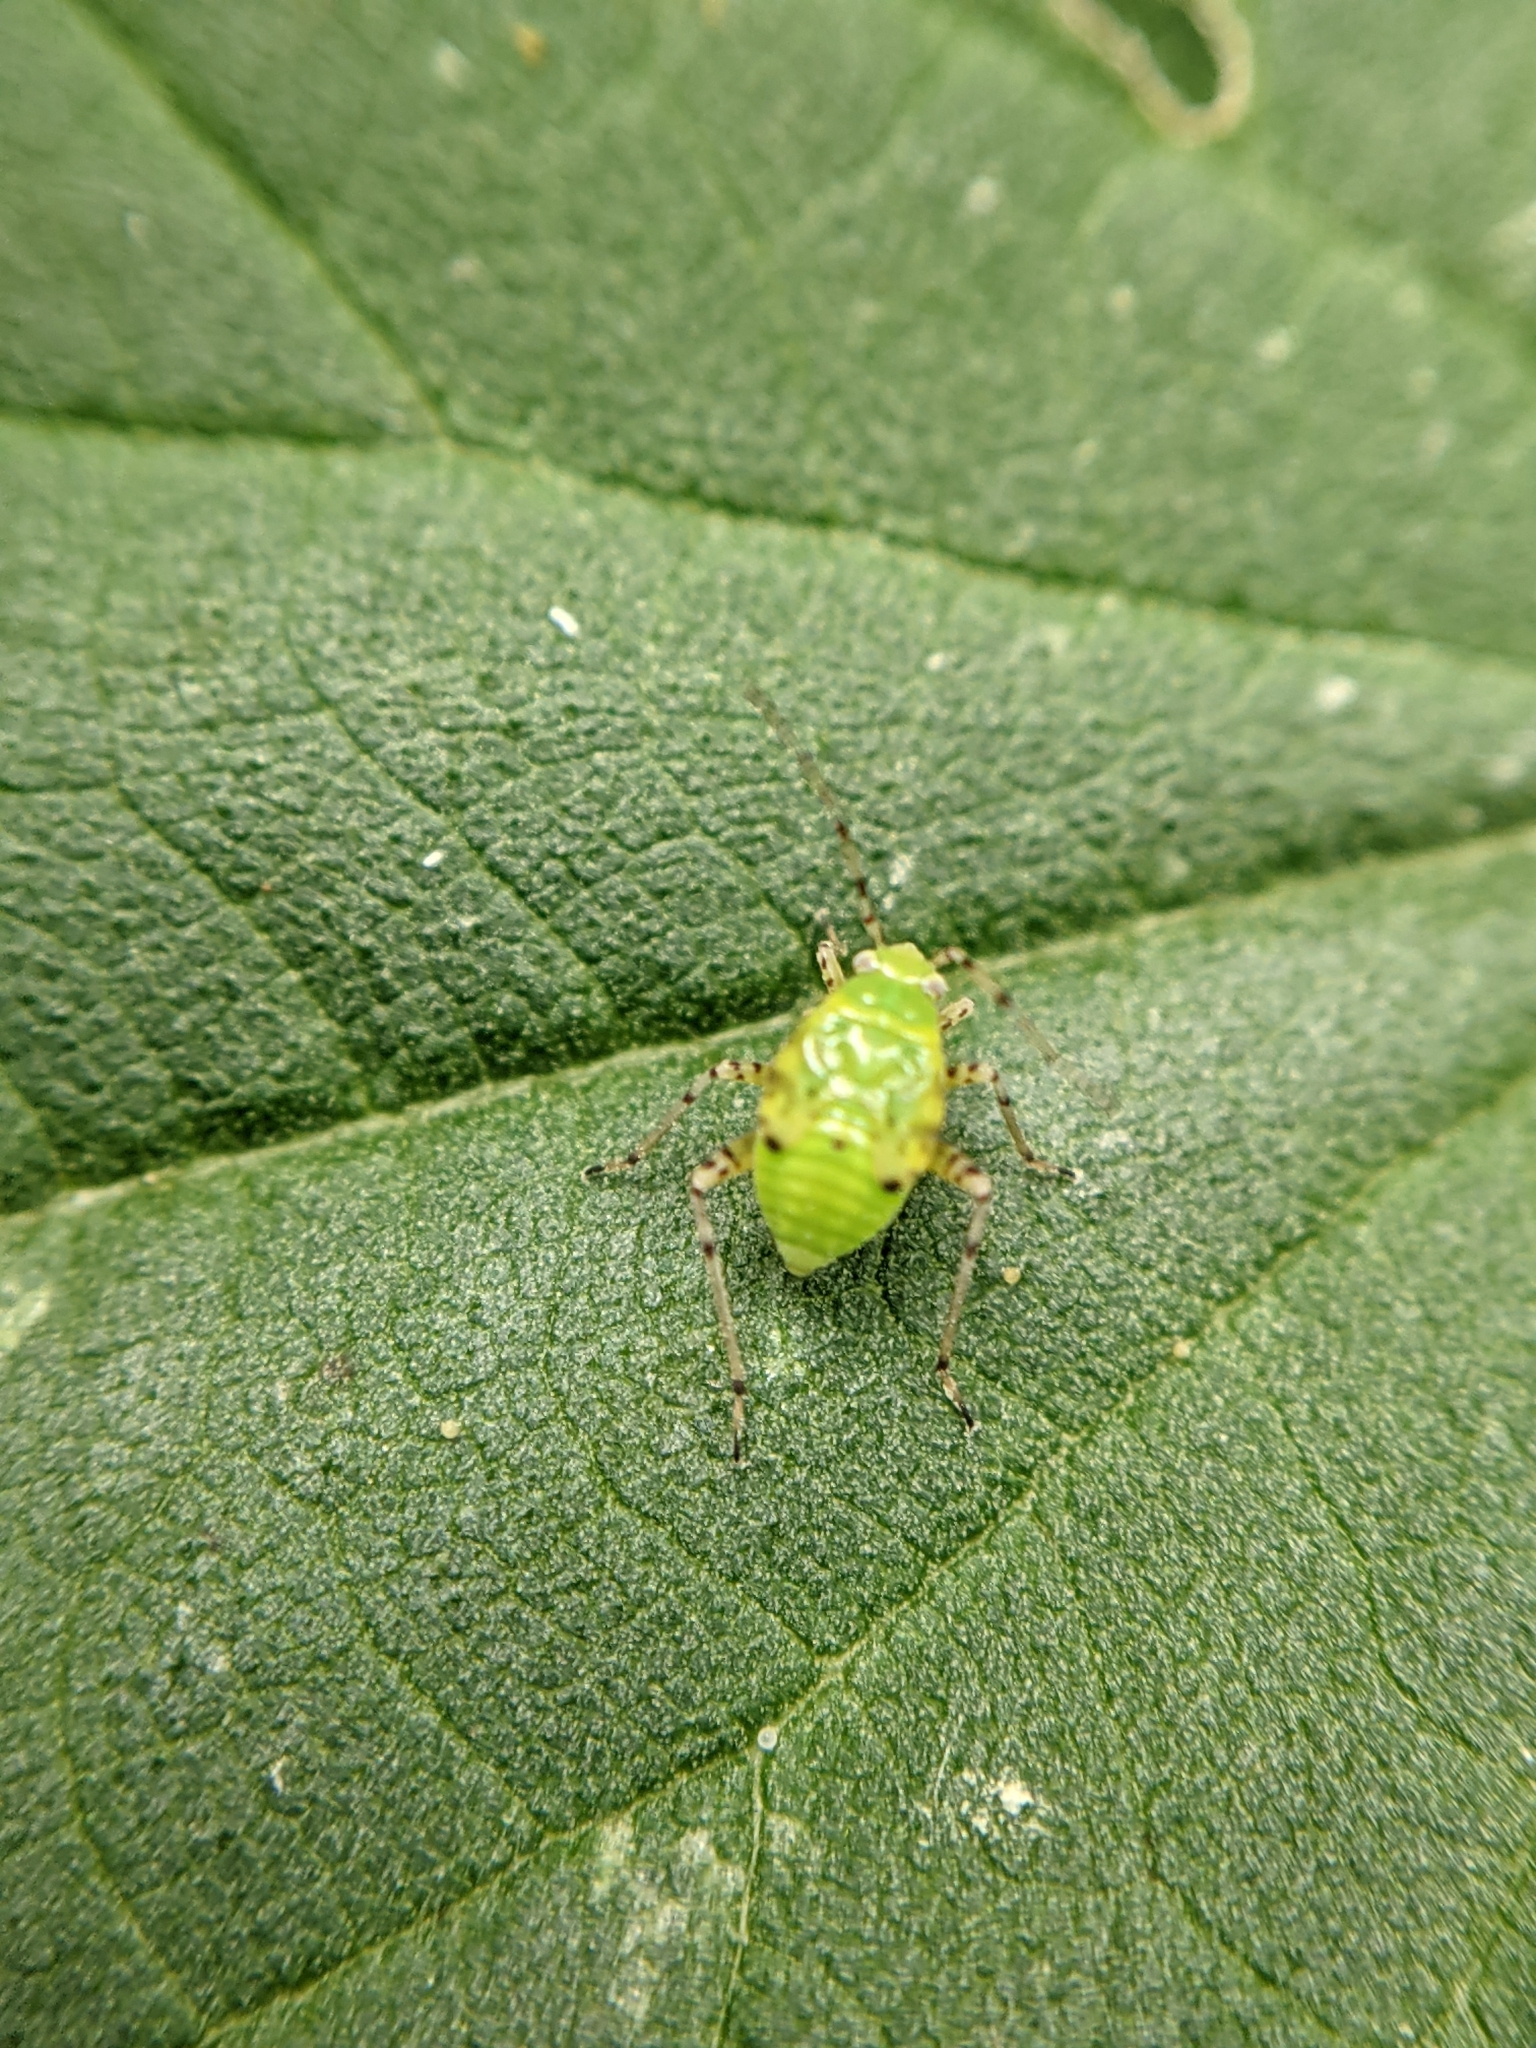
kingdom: Animalia
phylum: Arthropoda
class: Insecta
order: Hemiptera
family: Miridae
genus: Liocoris
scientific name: Liocoris tripustulatus
